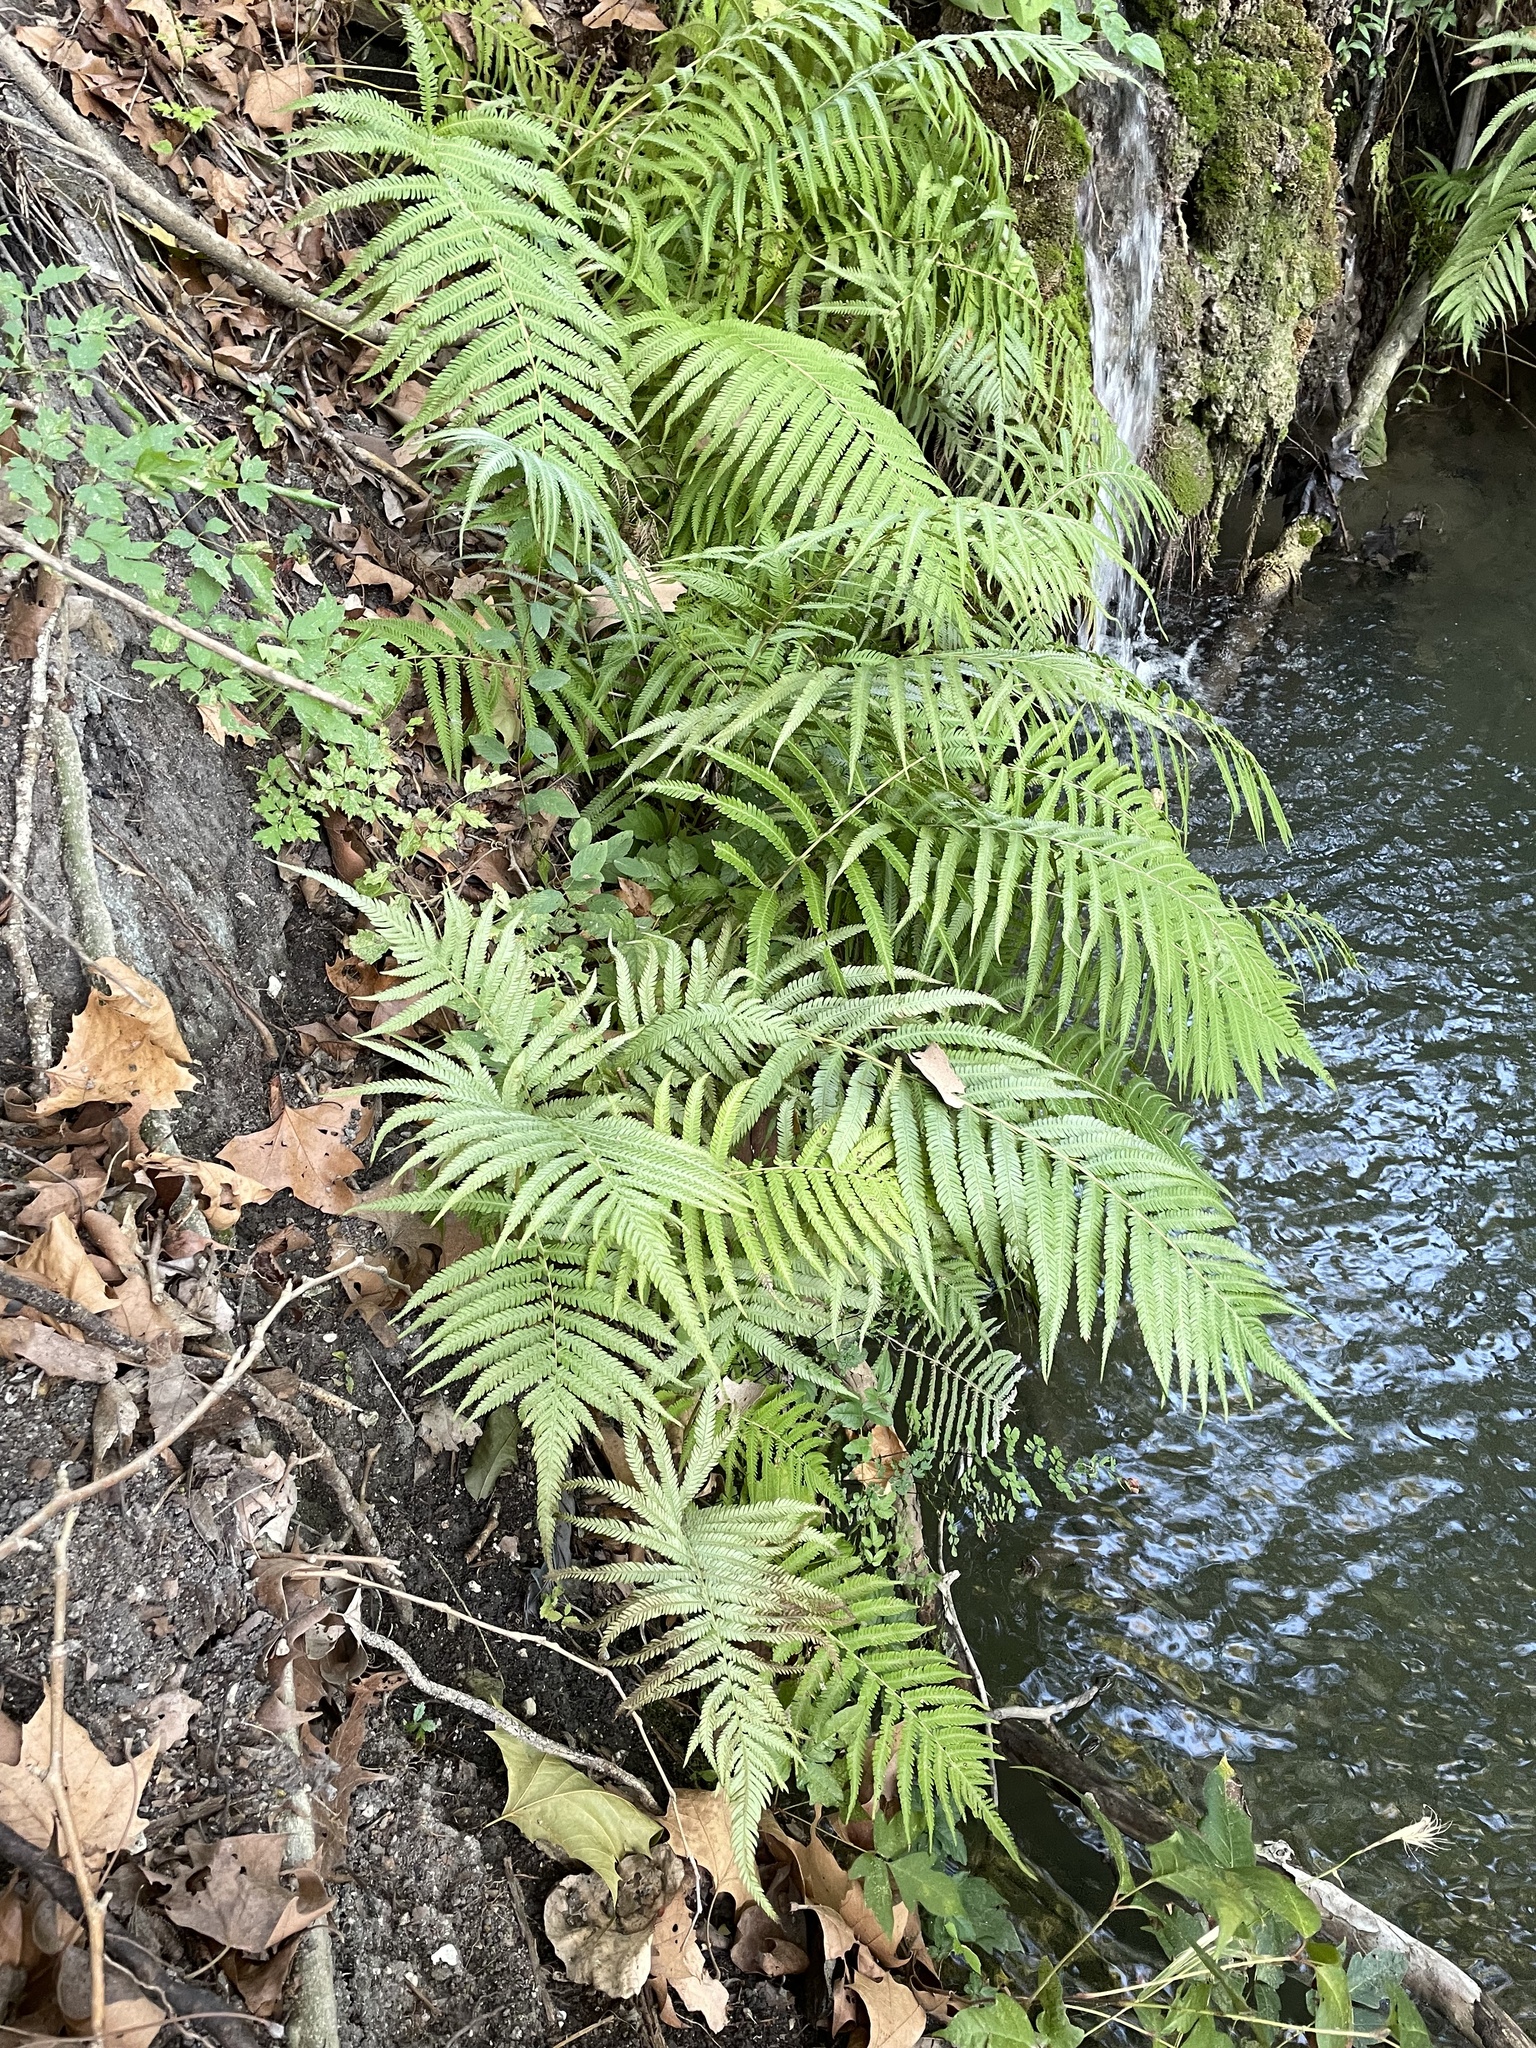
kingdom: Plantae
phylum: Tracheophyta
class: Polypodiopsida
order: Polypodiales
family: Thelypteridaceae
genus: Pelazoneuron
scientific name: Pelazoneuron ovatum
